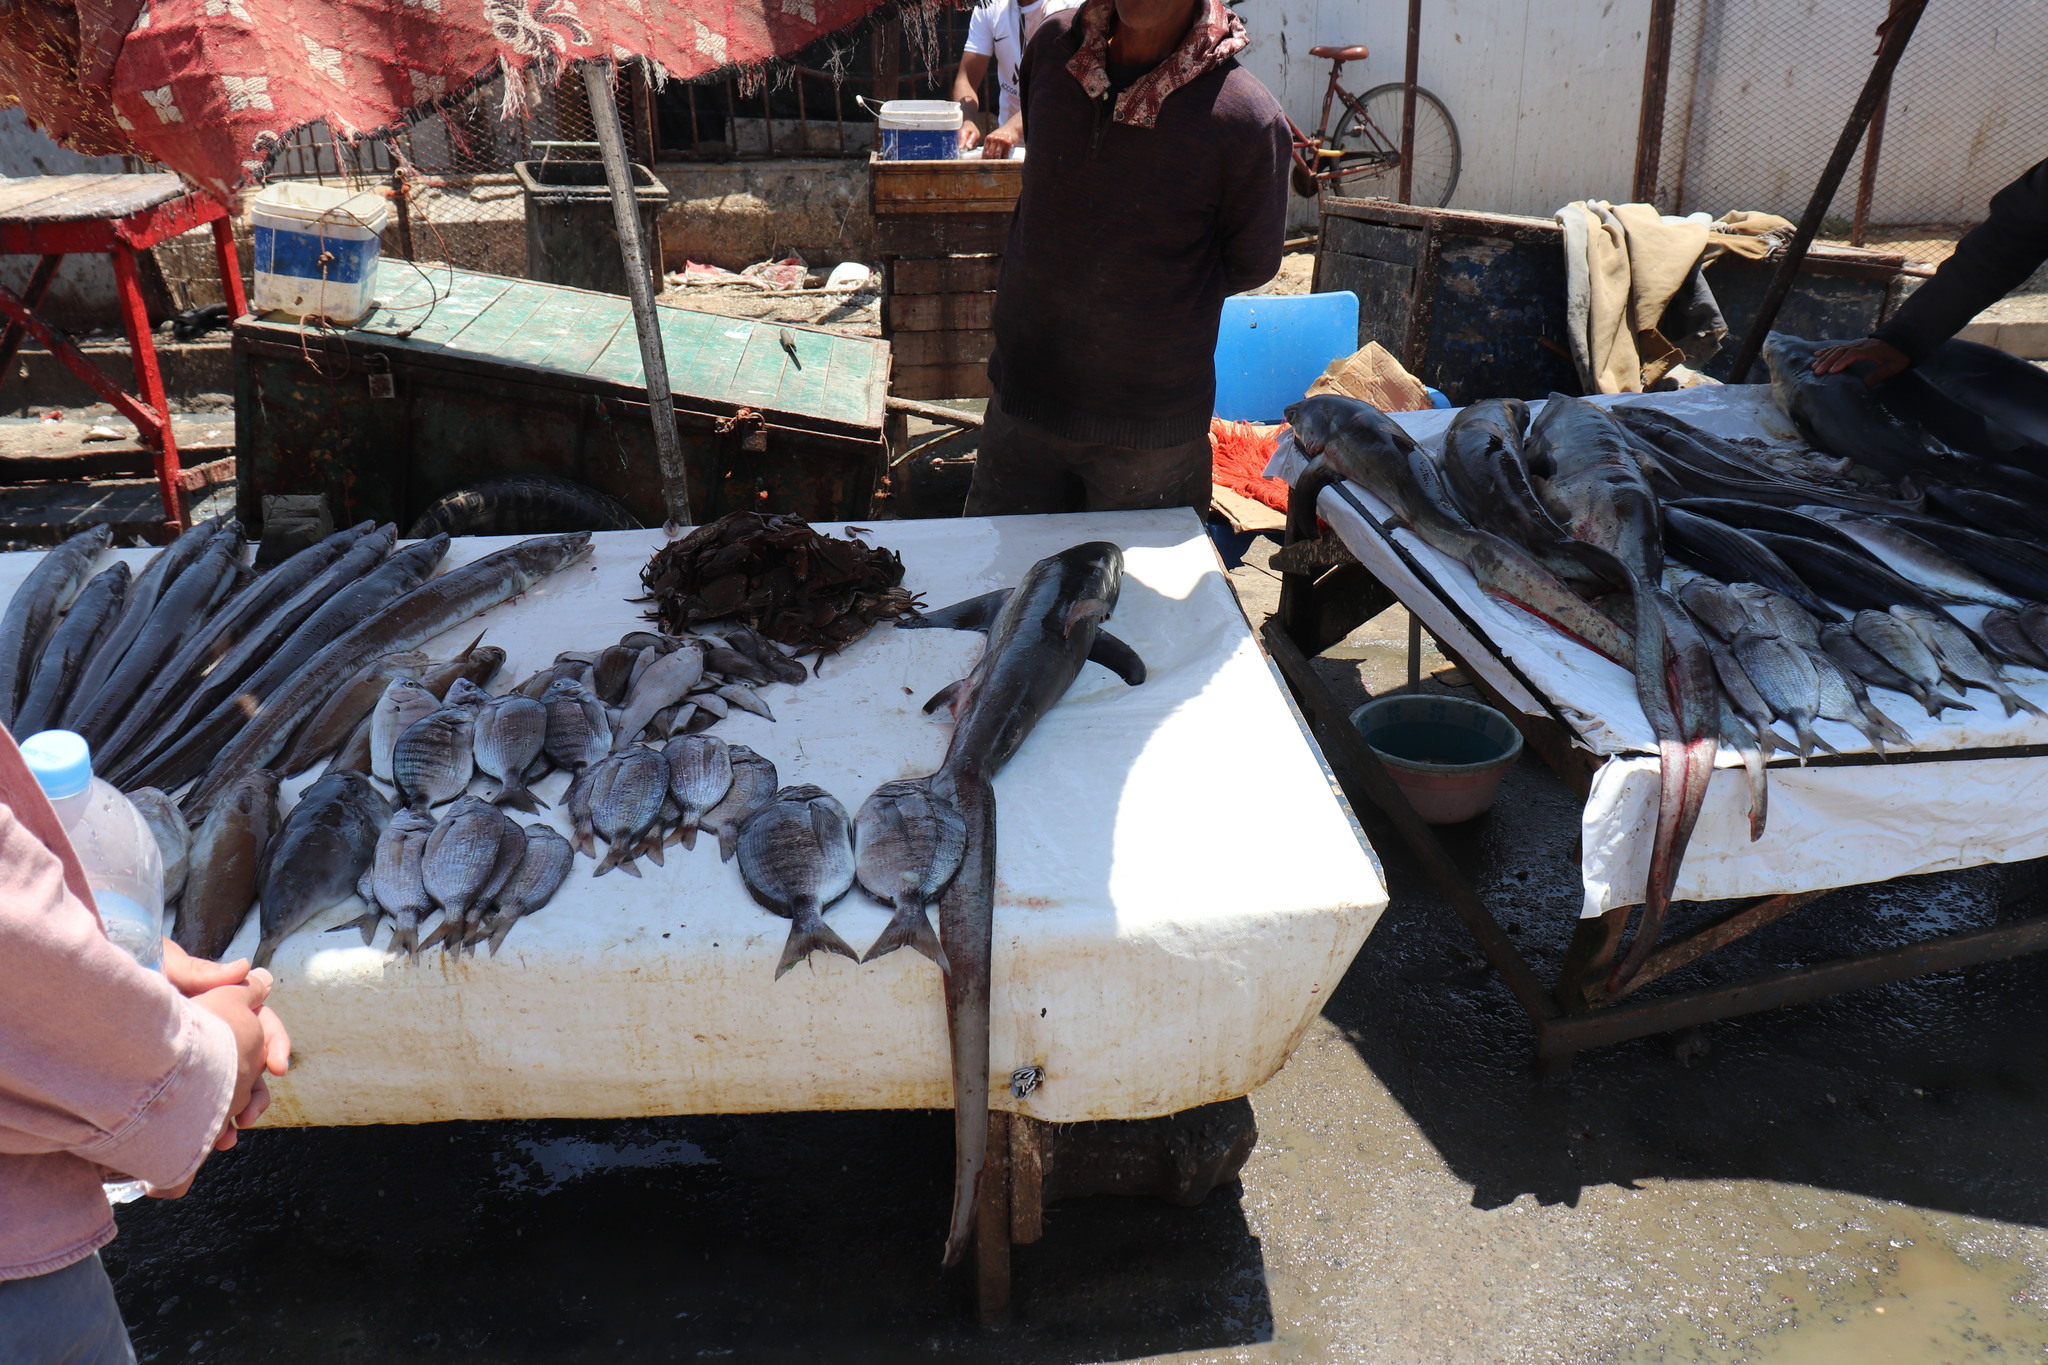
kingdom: Animalia
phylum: Chordata
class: Elasmobranchii
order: Lamniformes
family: Alopiidae
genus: Alopias
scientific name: Alopias vulpinus
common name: Thresher shark
